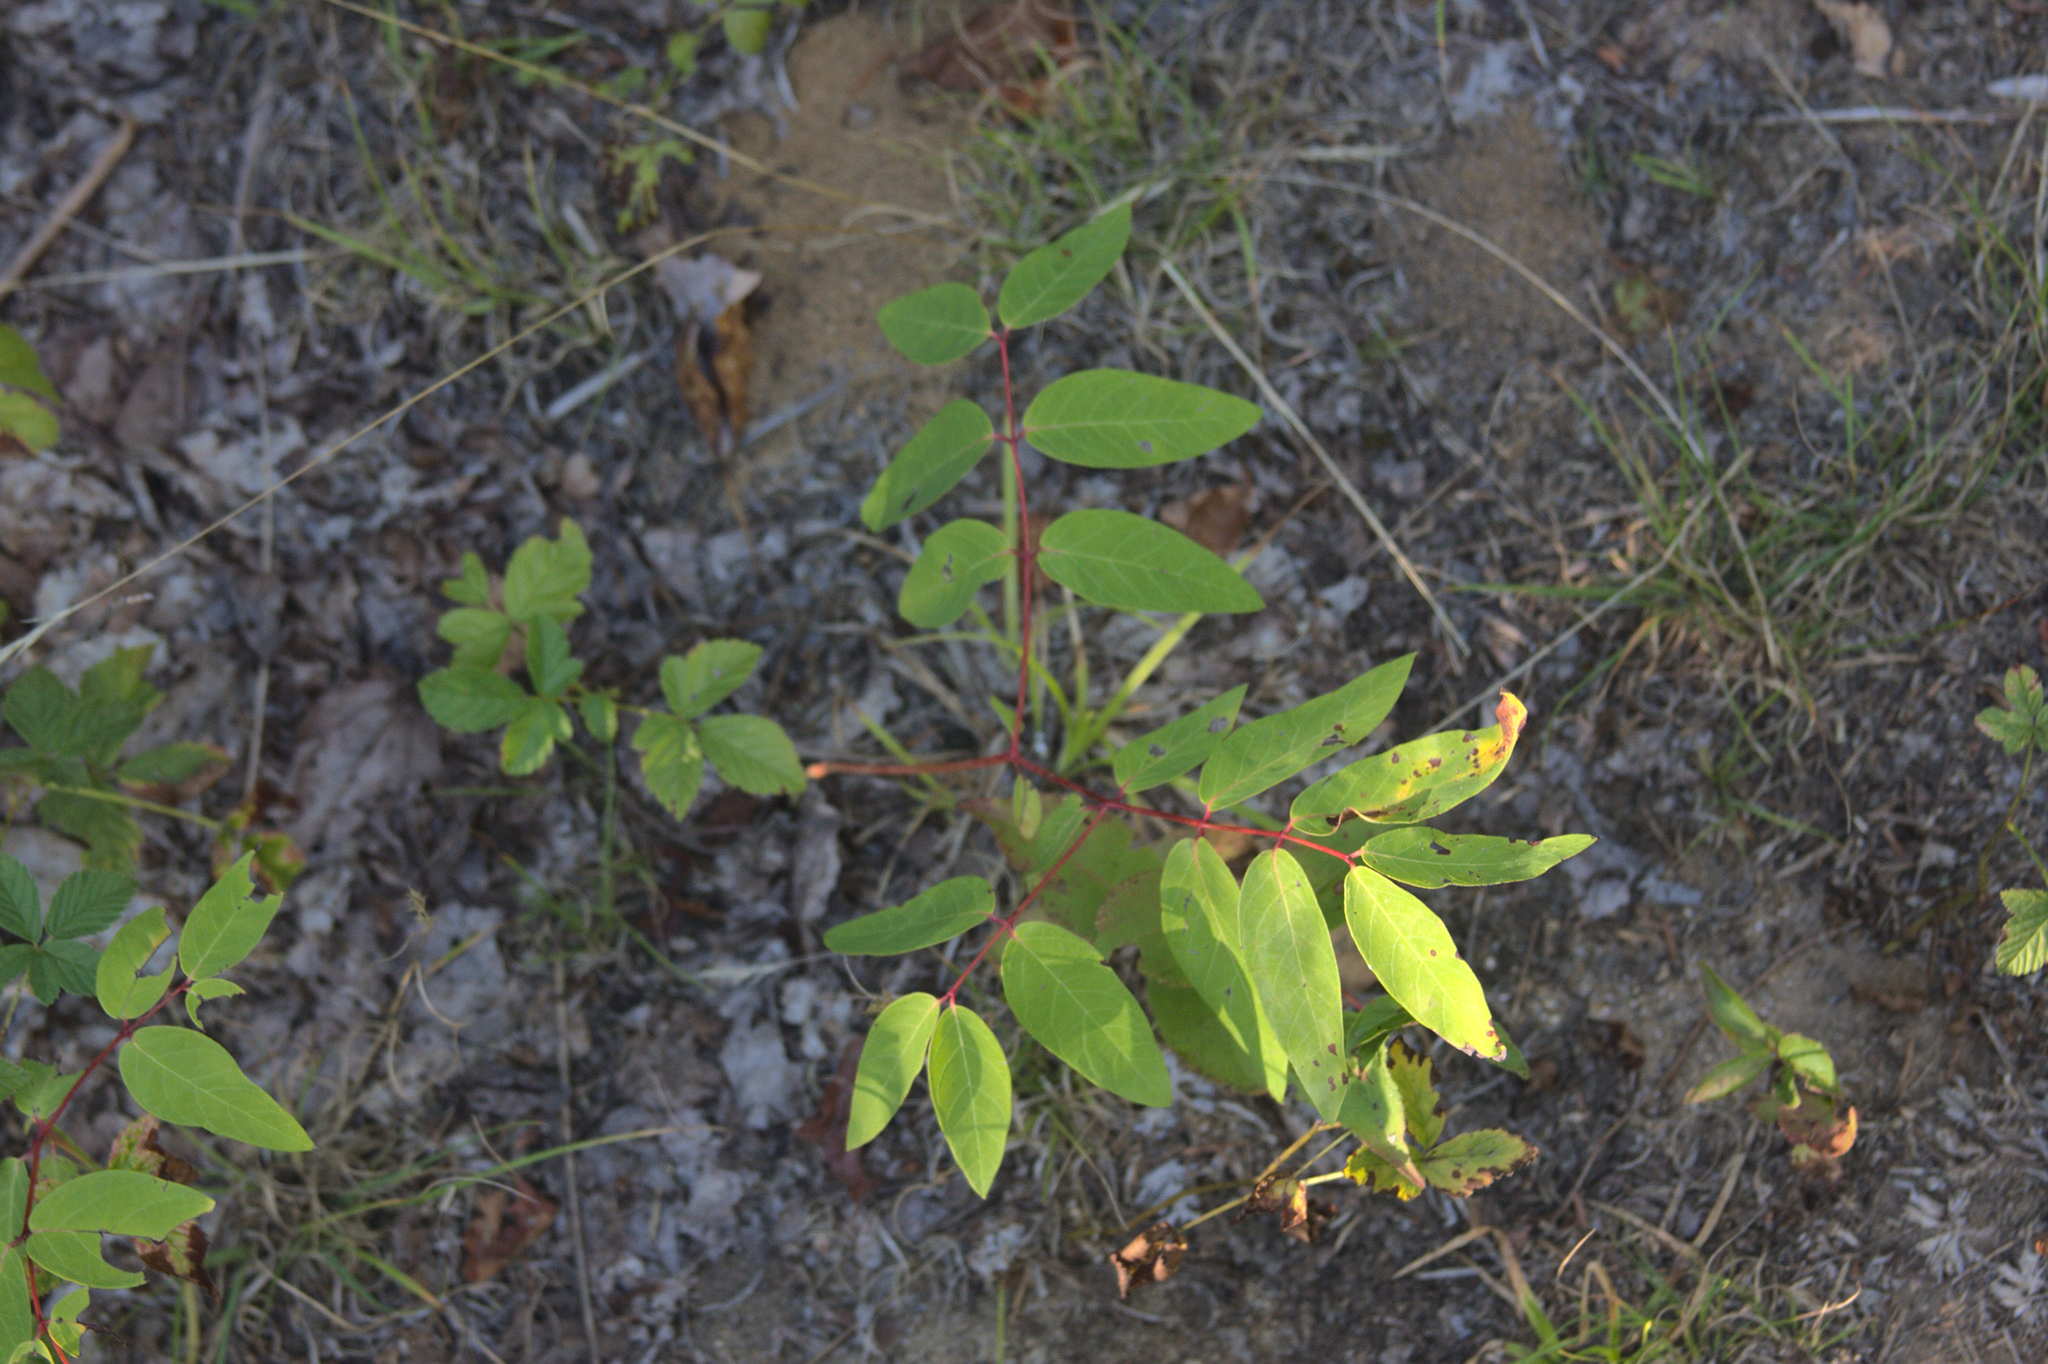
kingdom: Plantae
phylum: Tracheophyta
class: Magnoliopsida
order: Gentianales
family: Apocynaceae
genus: Apocynum
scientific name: Apocynum androsaemifolium
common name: Spreading dogbane
